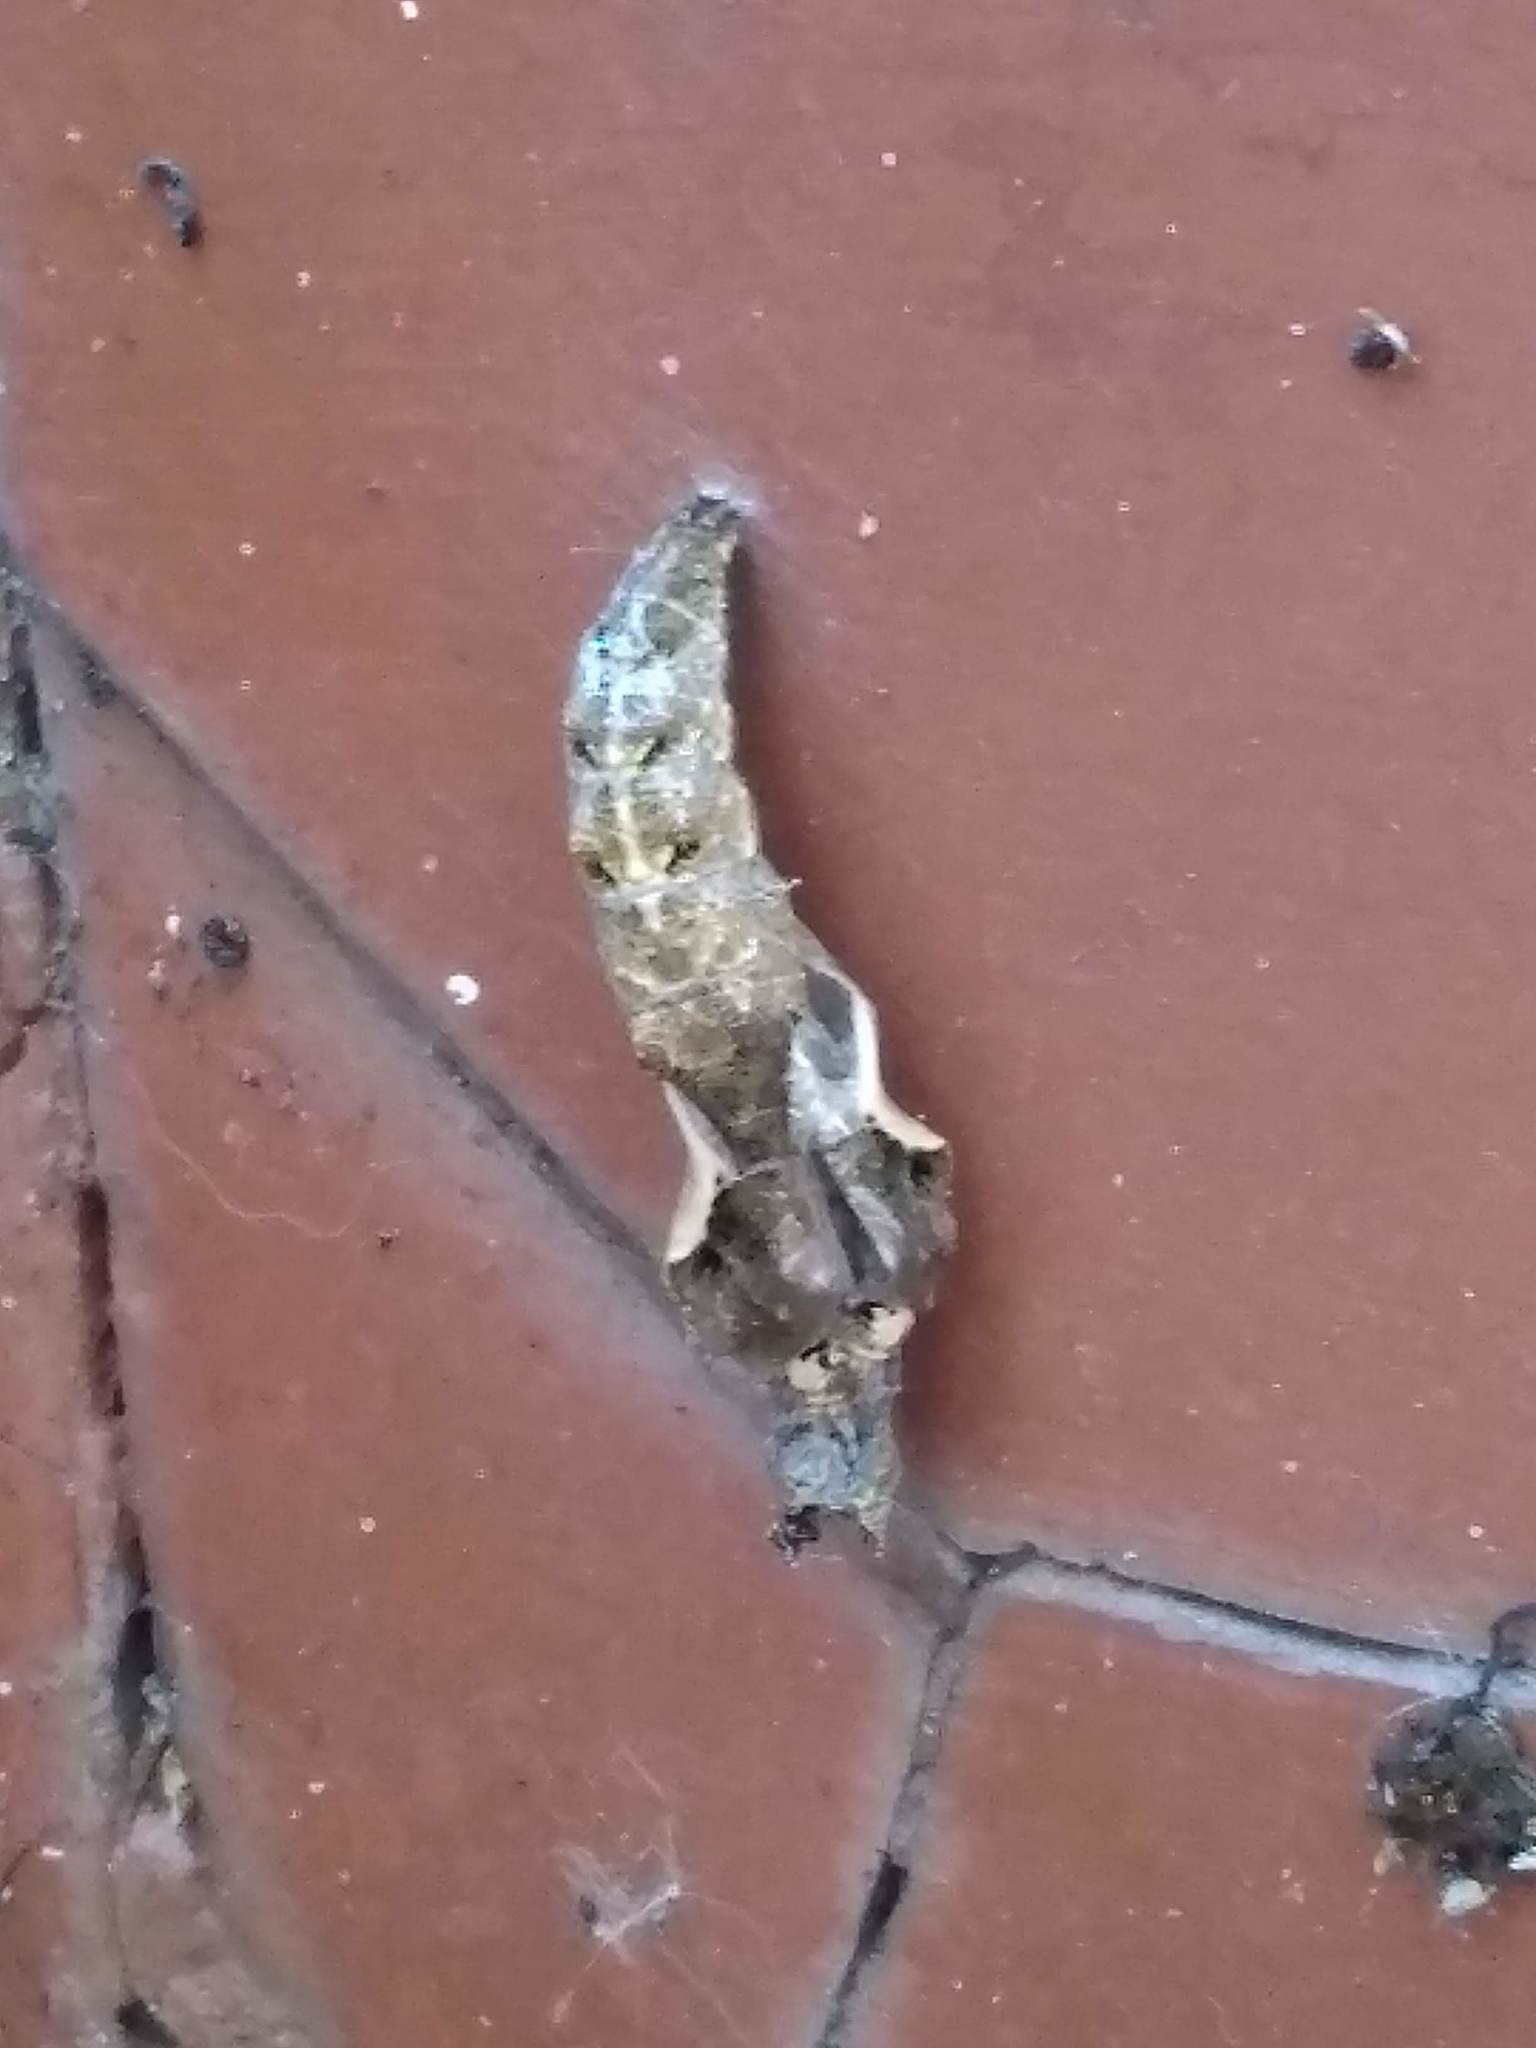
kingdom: Animalia
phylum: Arthropoda
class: Insecta
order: Lepidoptera
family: Nymphalidae
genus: Dione
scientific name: Dione vanillae
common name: Gulf fritillary
